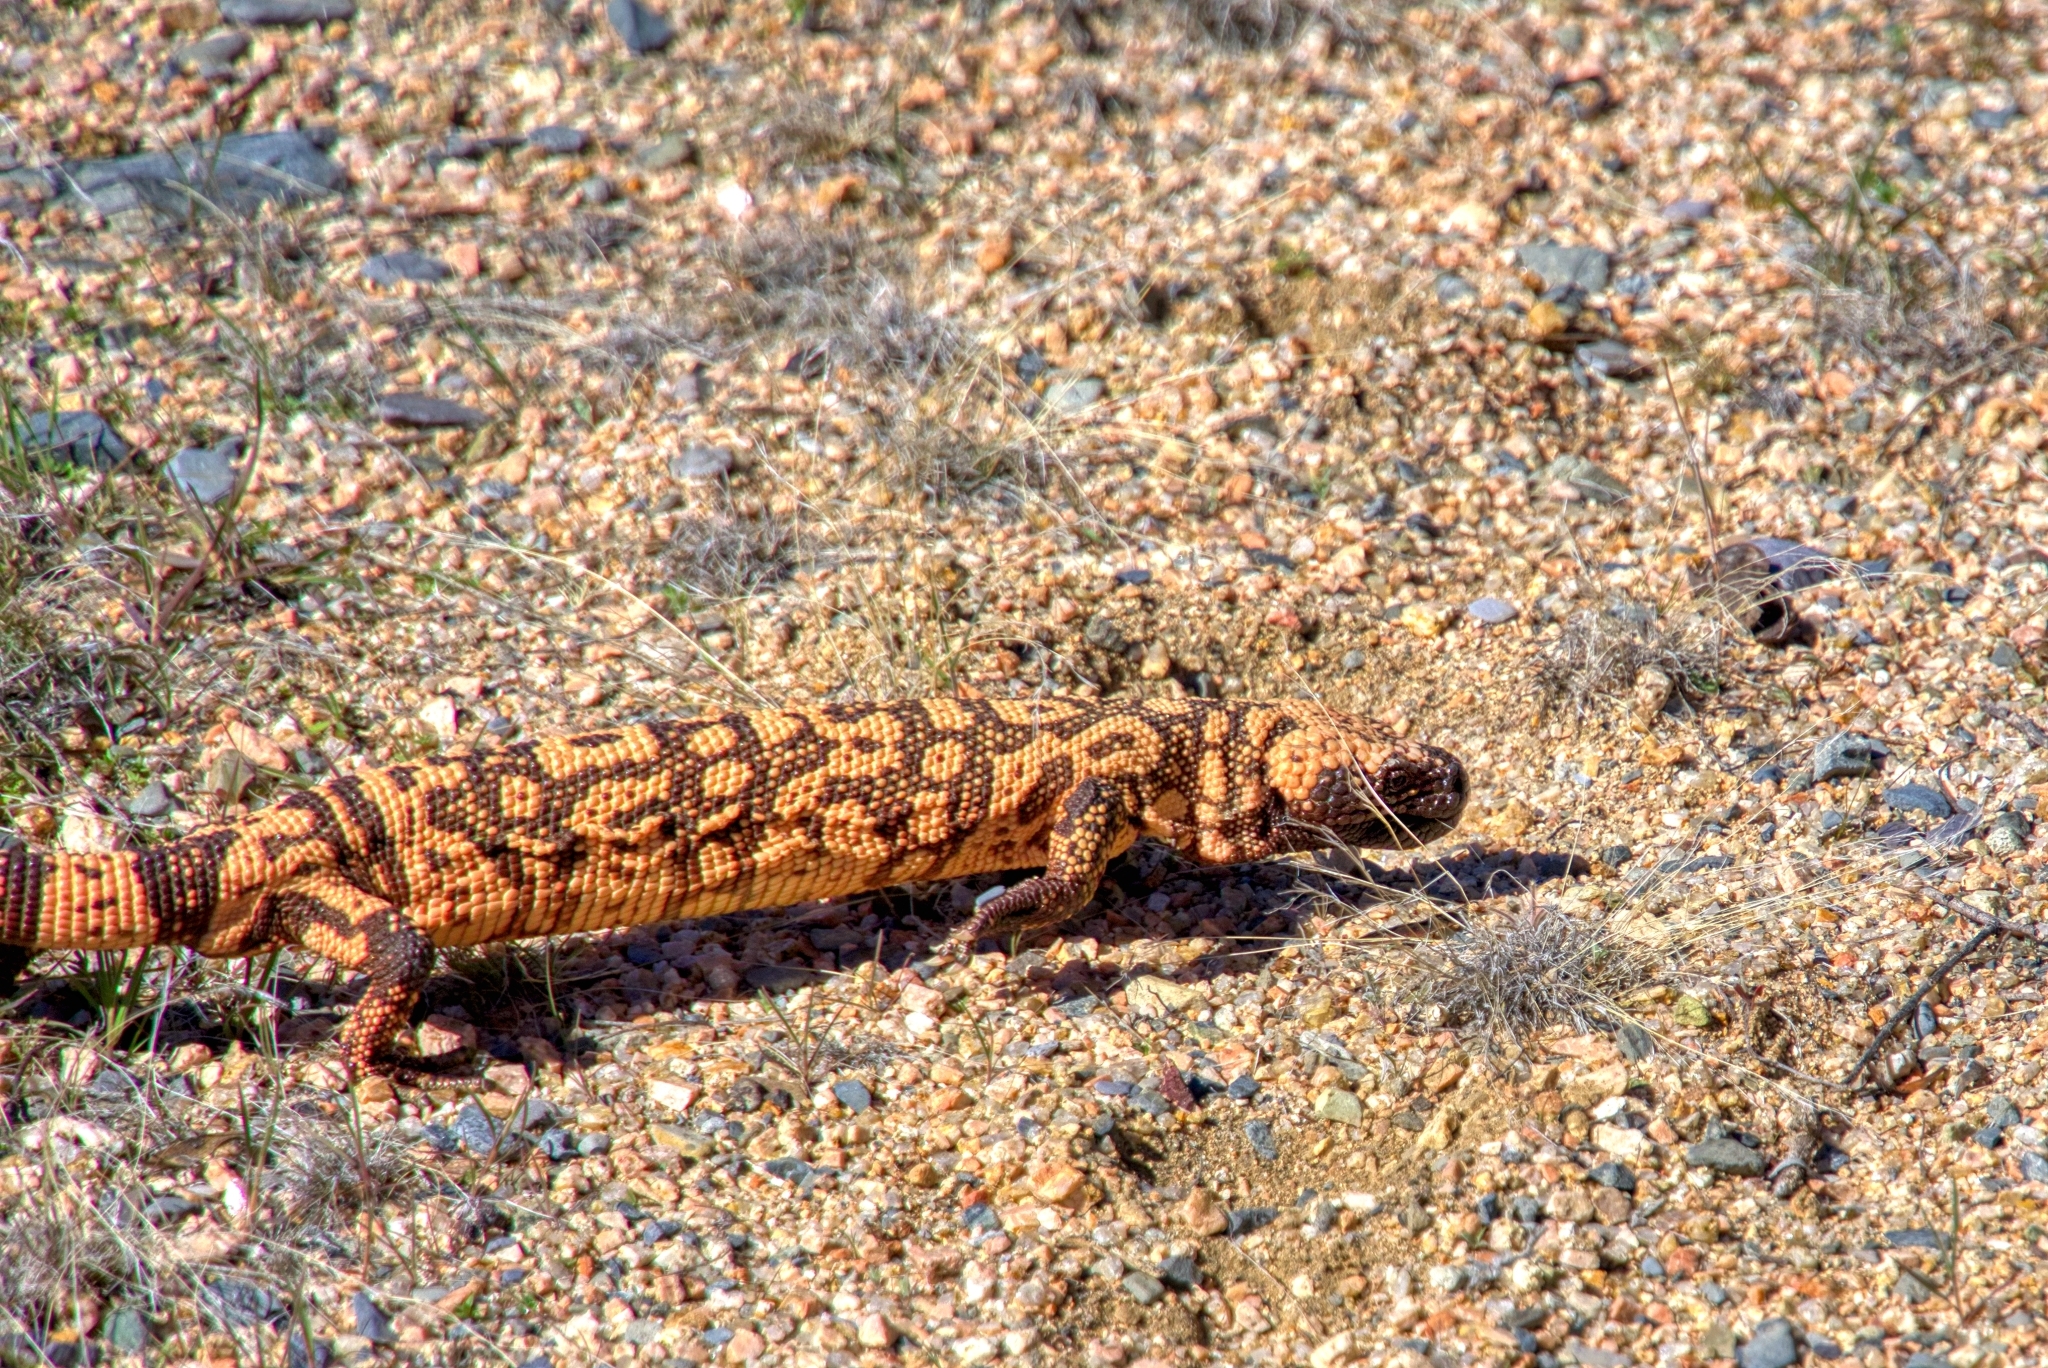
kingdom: Animalia
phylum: Chordata
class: Squamata
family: Helodermatidae
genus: Heloderma
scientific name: Heloderma suspectum
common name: Gila monster
